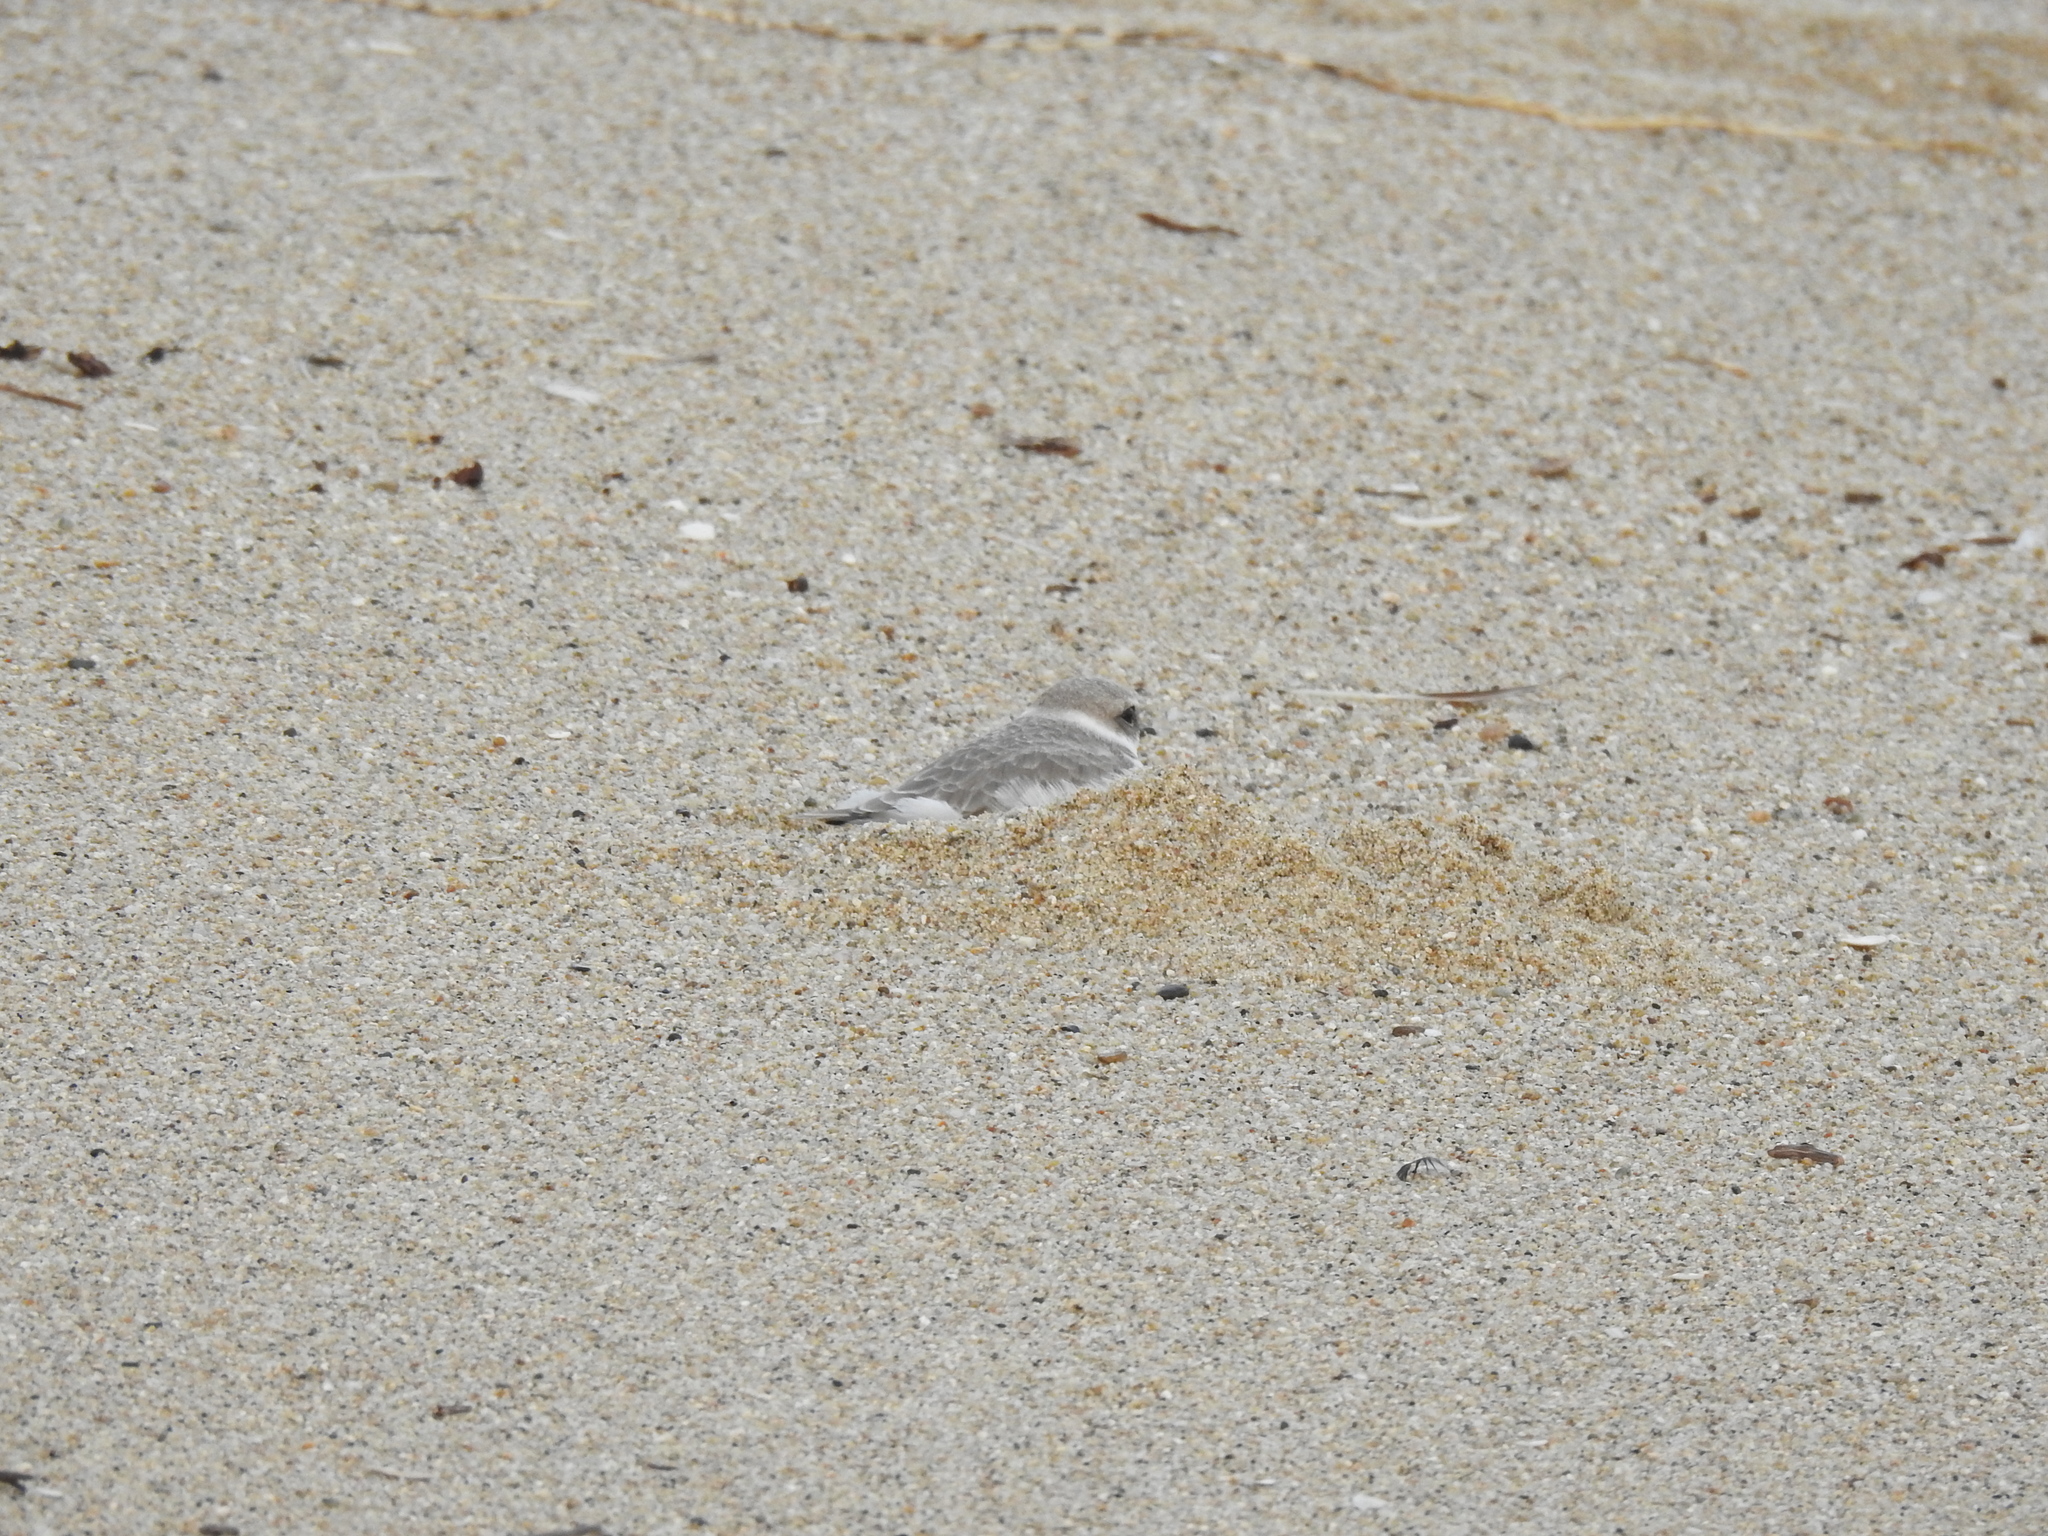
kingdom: Animalia
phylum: Chordata
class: Aves
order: Charadriiformes
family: Charadriidae
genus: Anarhynchus
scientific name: Anarhynchus
